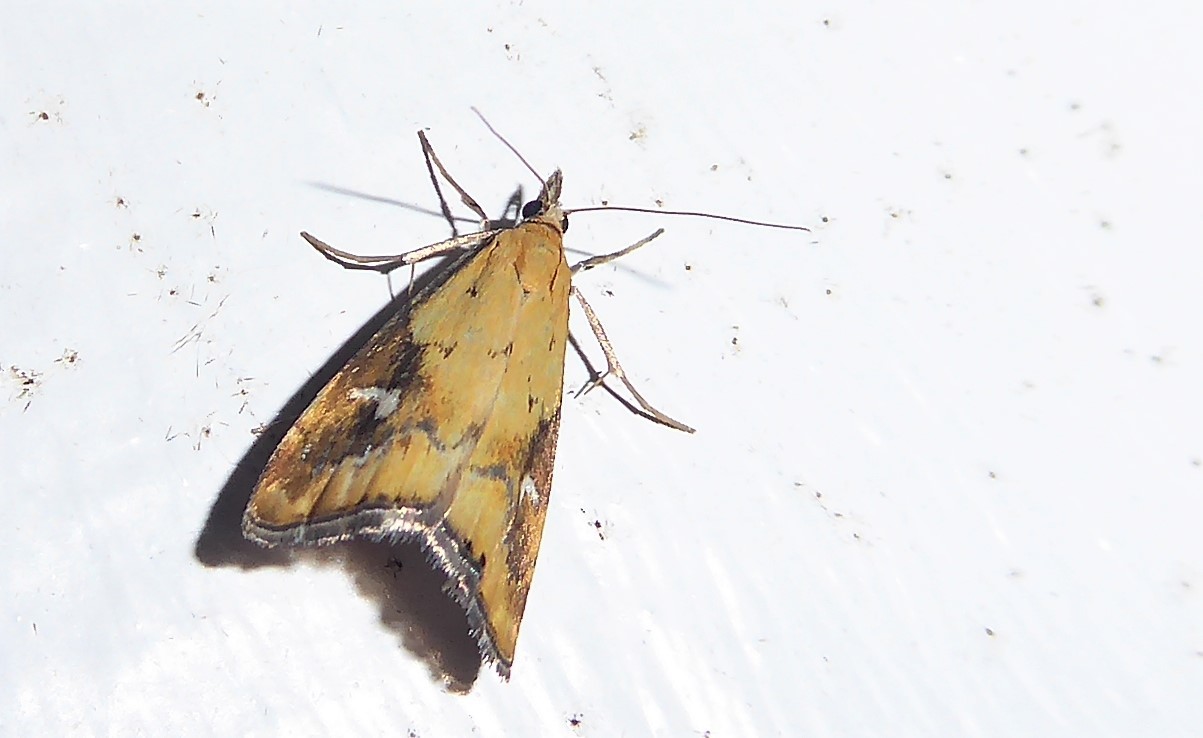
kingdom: Animalia
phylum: Arthropoda
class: Insecta
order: Lepidoptera
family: Crambidae
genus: Glaucocharis
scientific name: Glaucocharis lepidella
